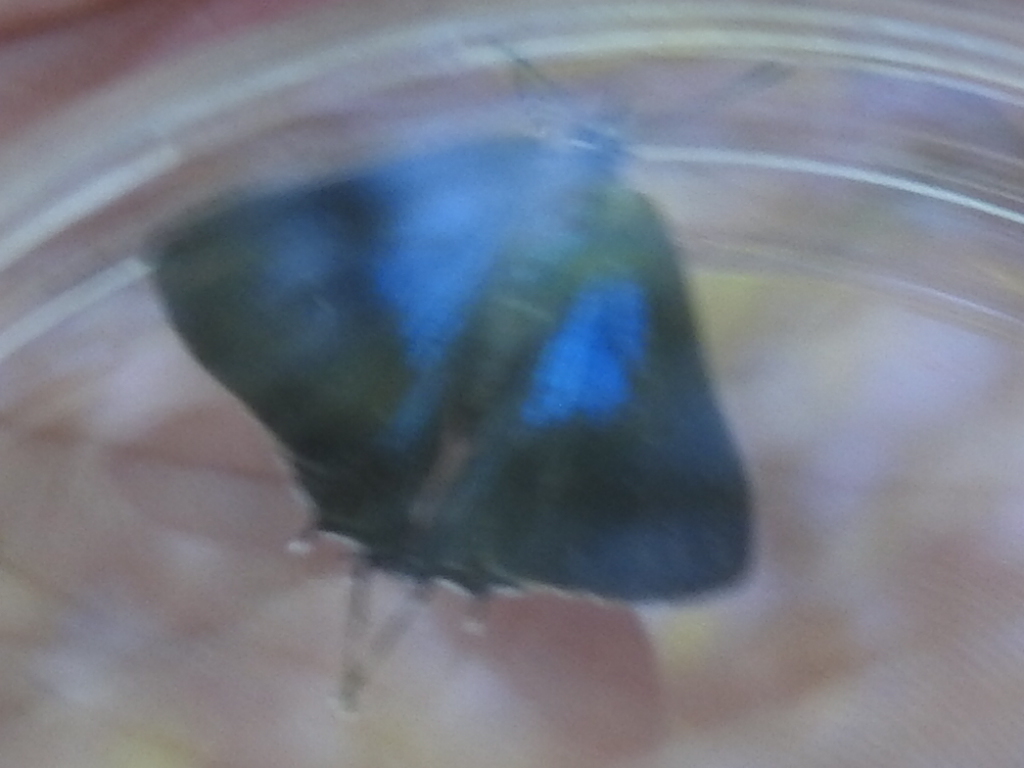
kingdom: Animalia
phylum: Arthropoda
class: Insecta
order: Lepidoptera
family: Lycaenidae
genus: Parrhasius
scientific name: Parrhasius m-album
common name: White m hairstreak
